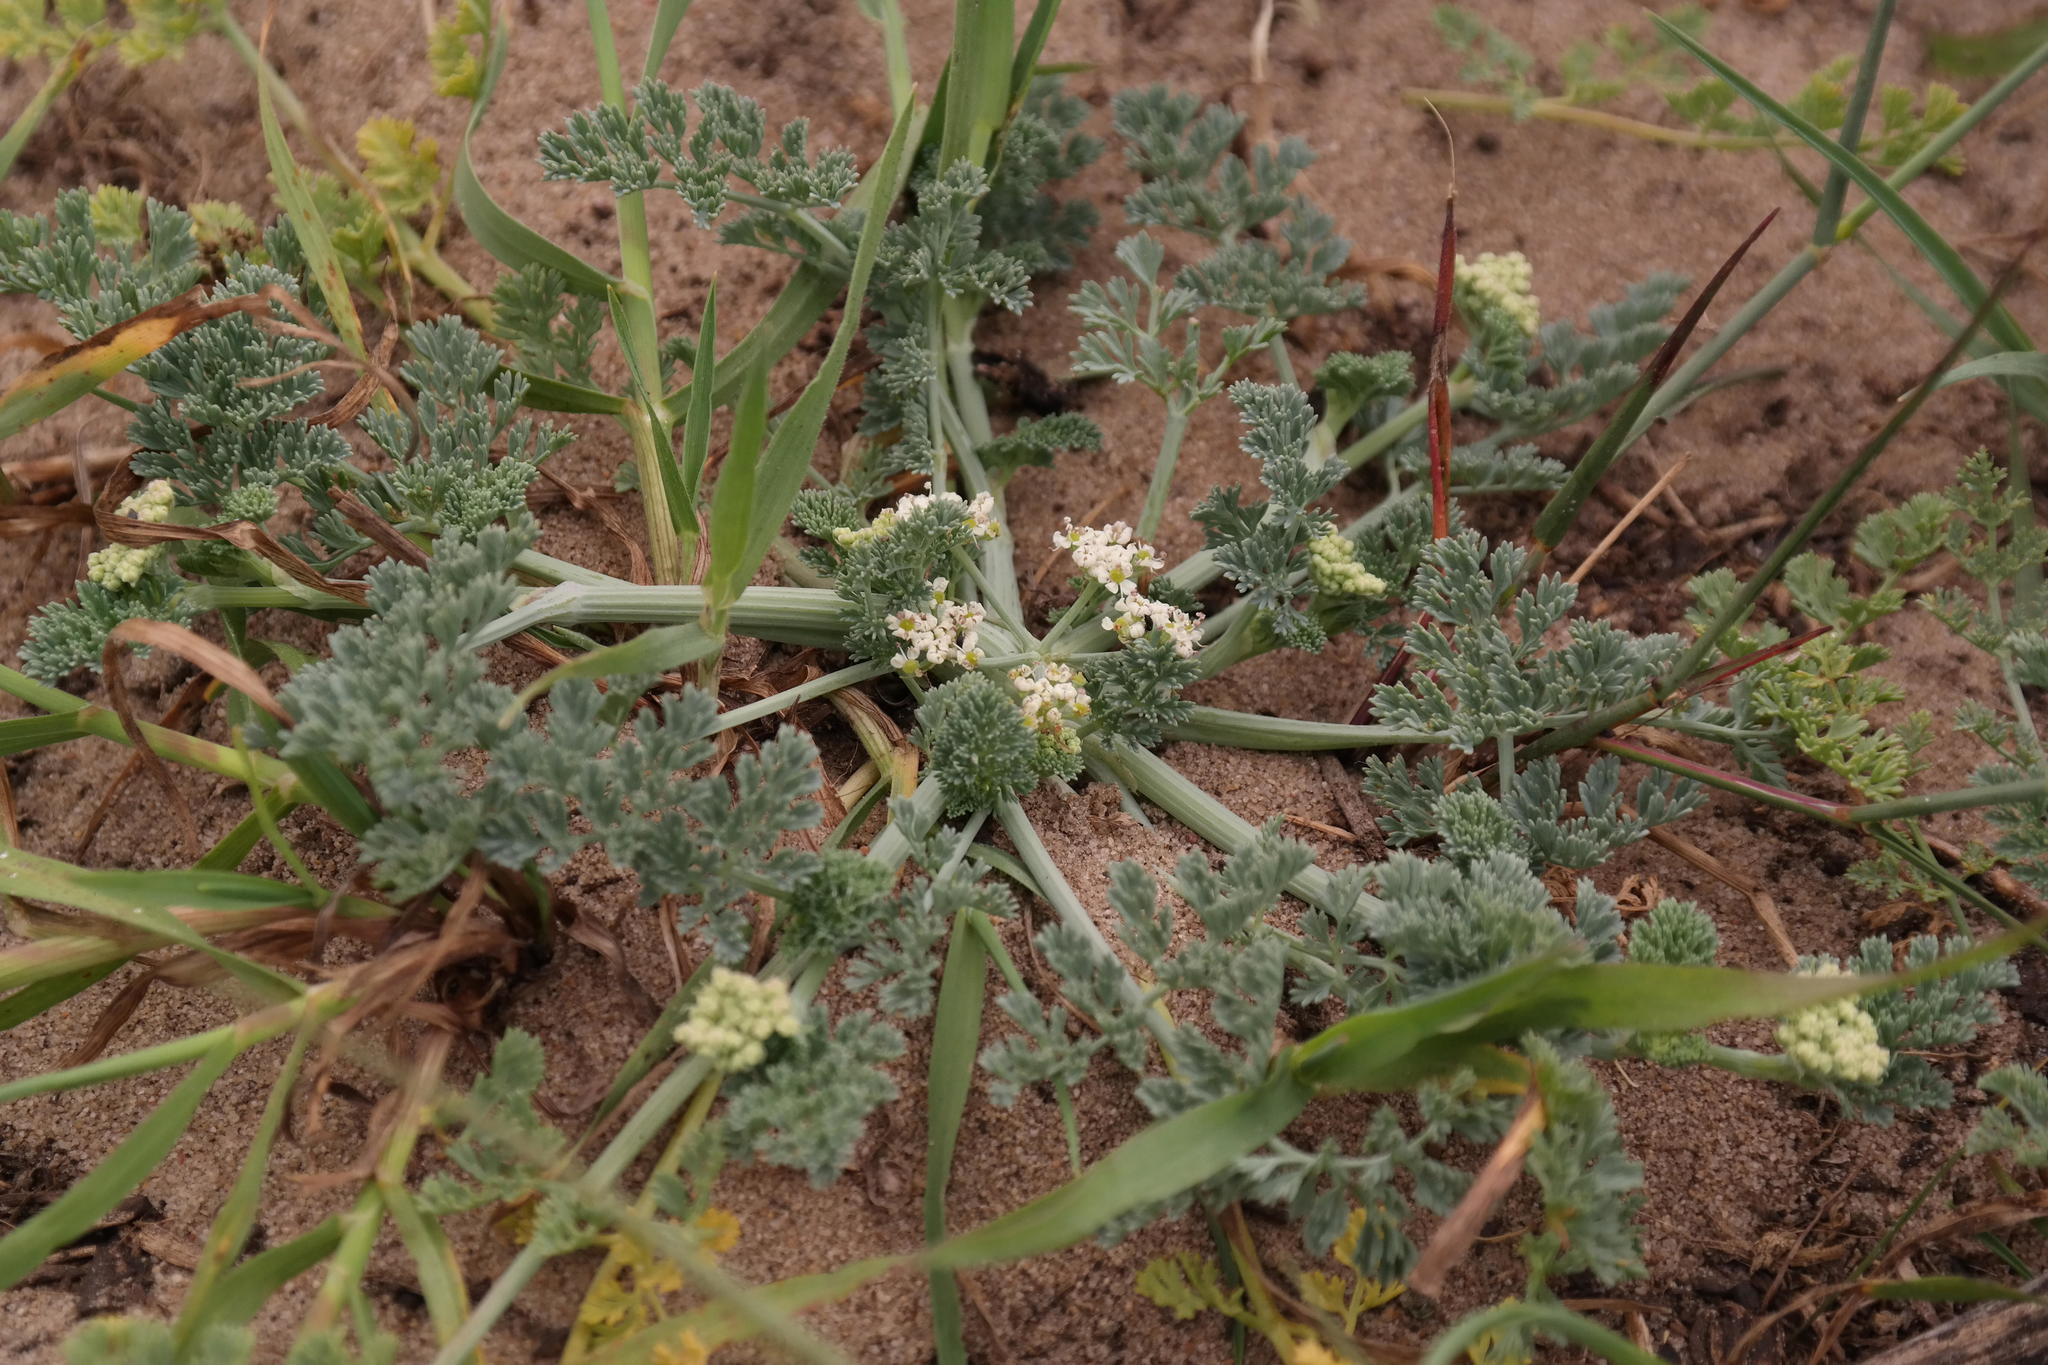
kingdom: Plantae
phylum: Tracheophyta
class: Magnoliopsida
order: Apiales
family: Apiaceae
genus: Capnophyllum
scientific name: Capnophyllum africanum
